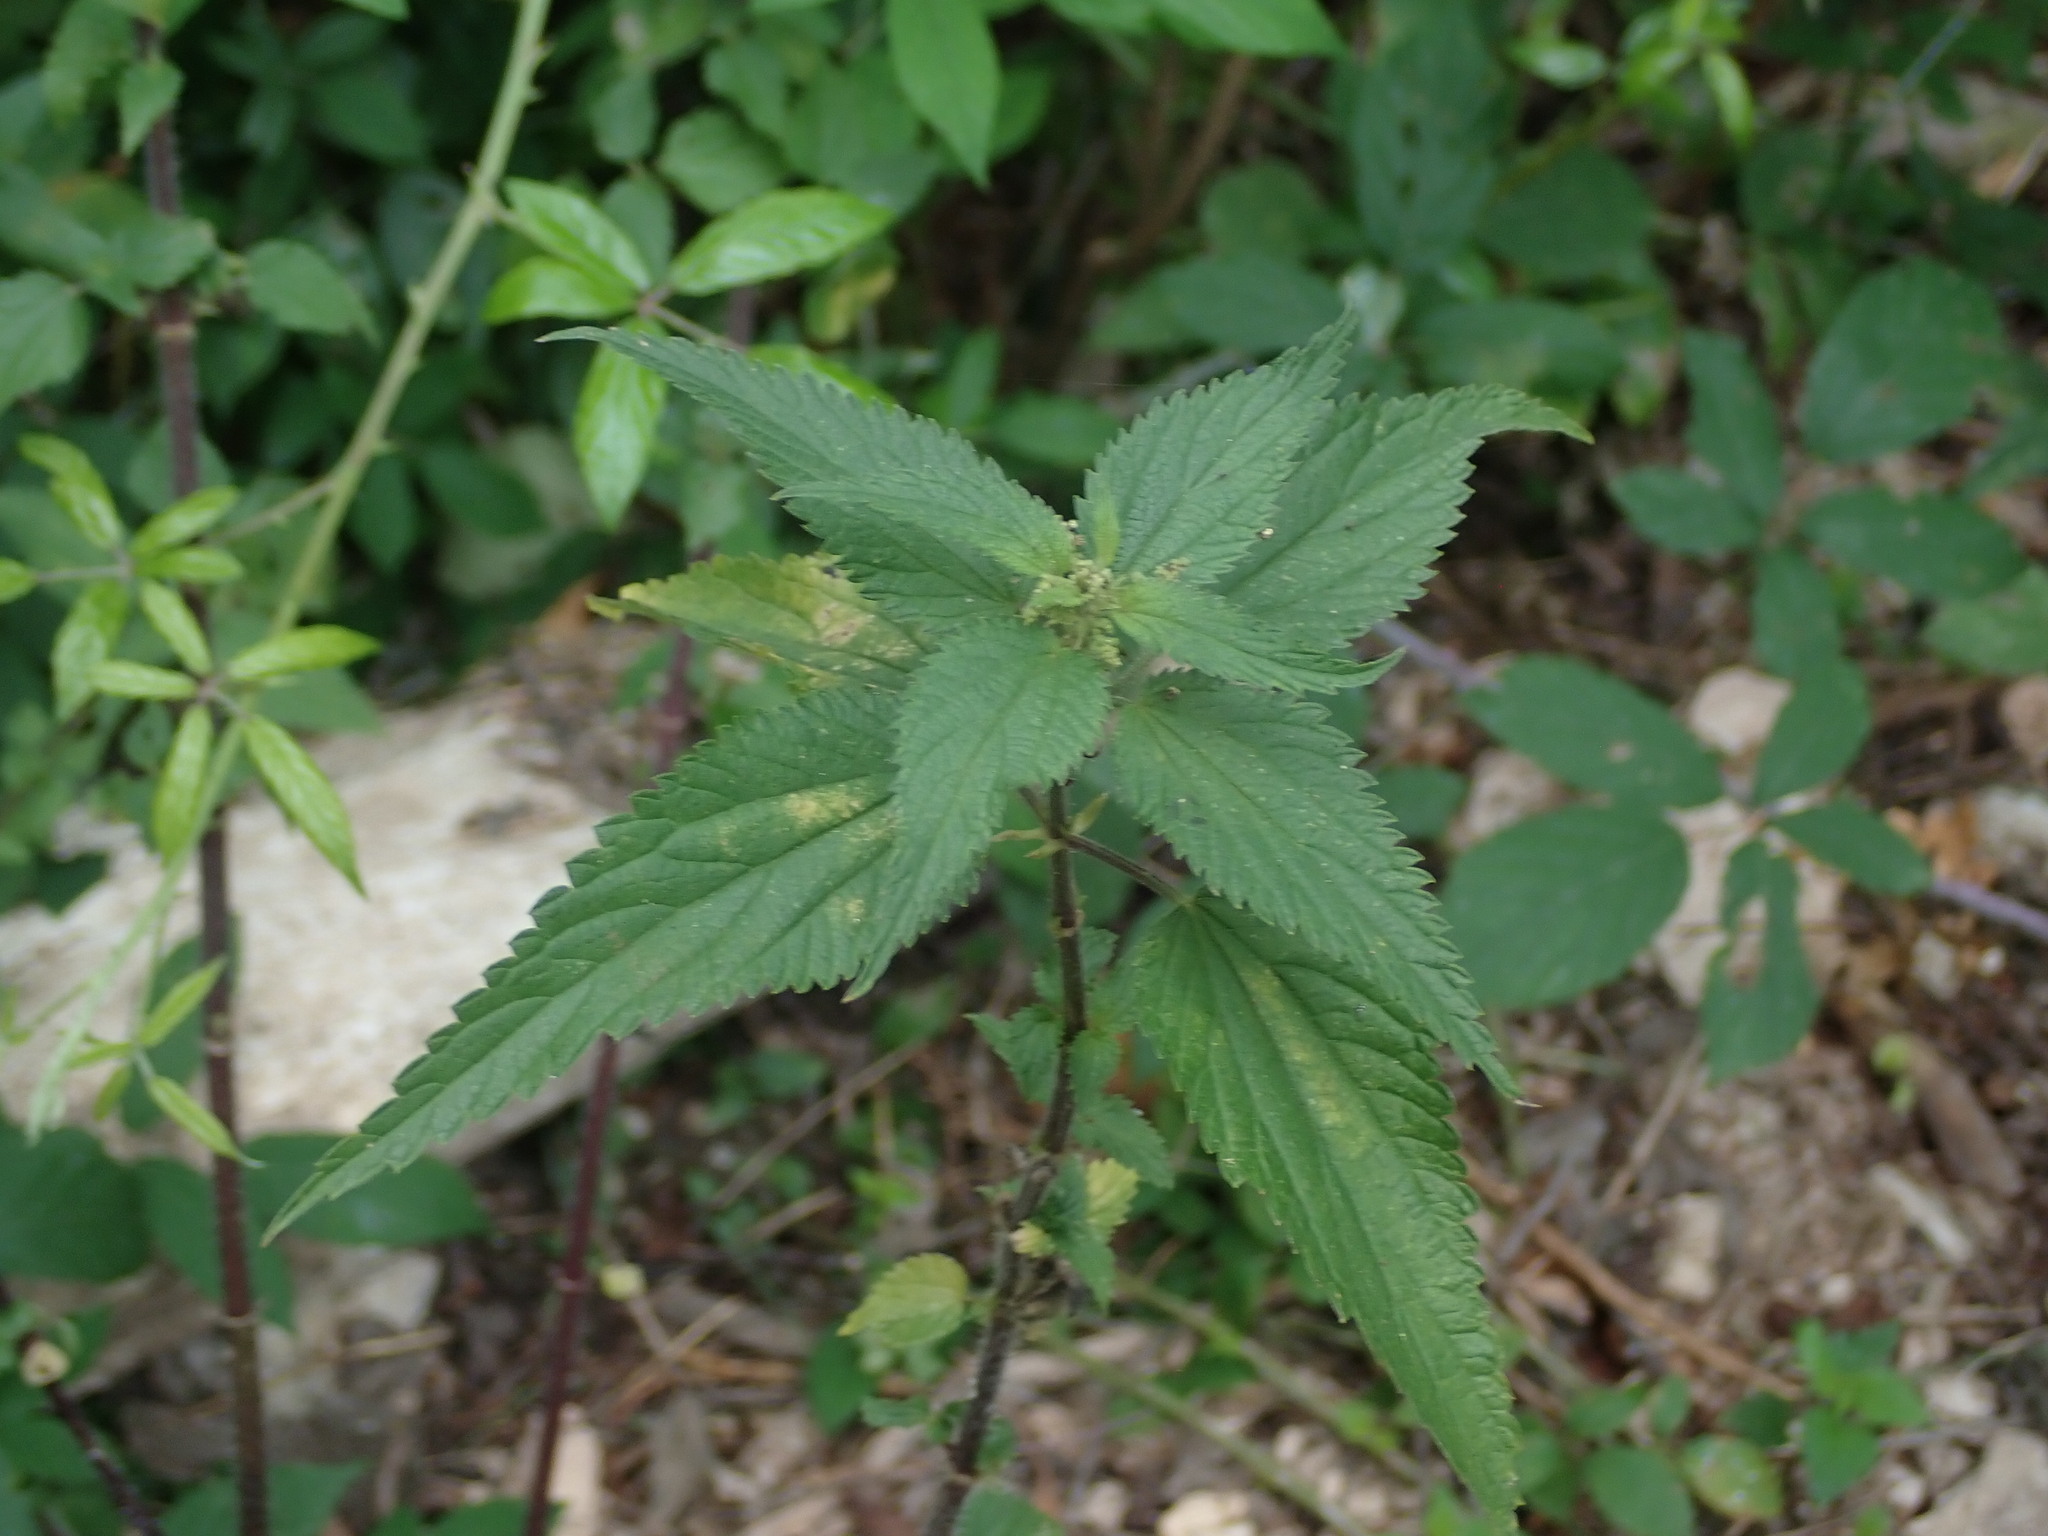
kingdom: Plantae
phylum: Tracheophyta
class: Magnoliopsida
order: Rosales
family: Urticaceae
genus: Urtica
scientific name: Urtica dioica
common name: Common nettle
